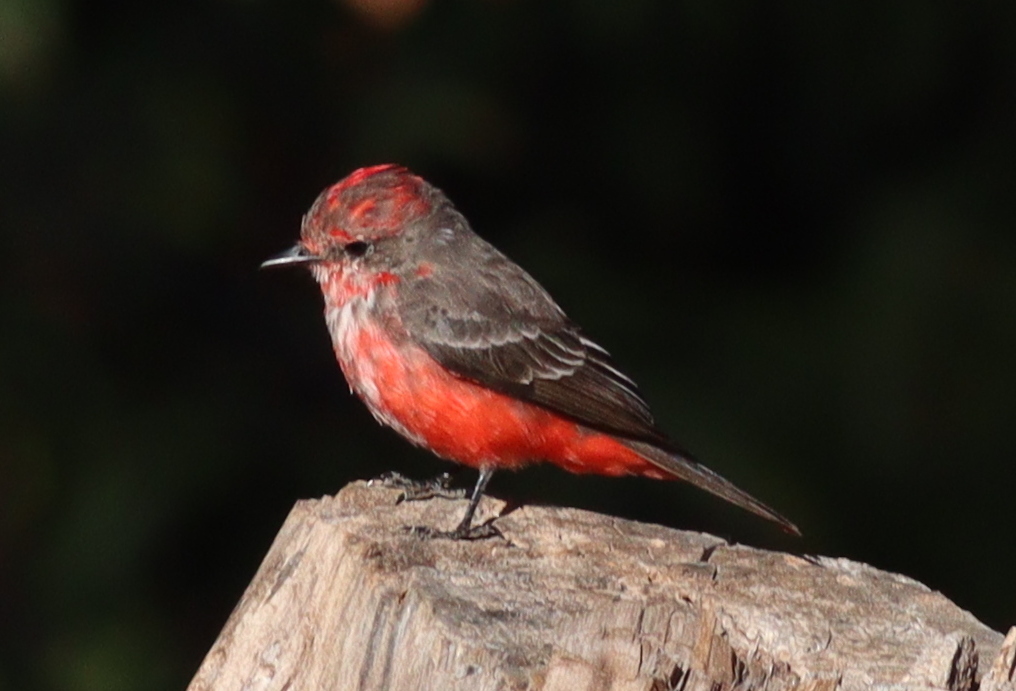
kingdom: Animalia
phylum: Chordata
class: Aves
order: Passeriformes
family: Tyrannidae
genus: Pyrocephalus
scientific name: Pyrocephalus rubinus
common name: Vermilion flycatcher
